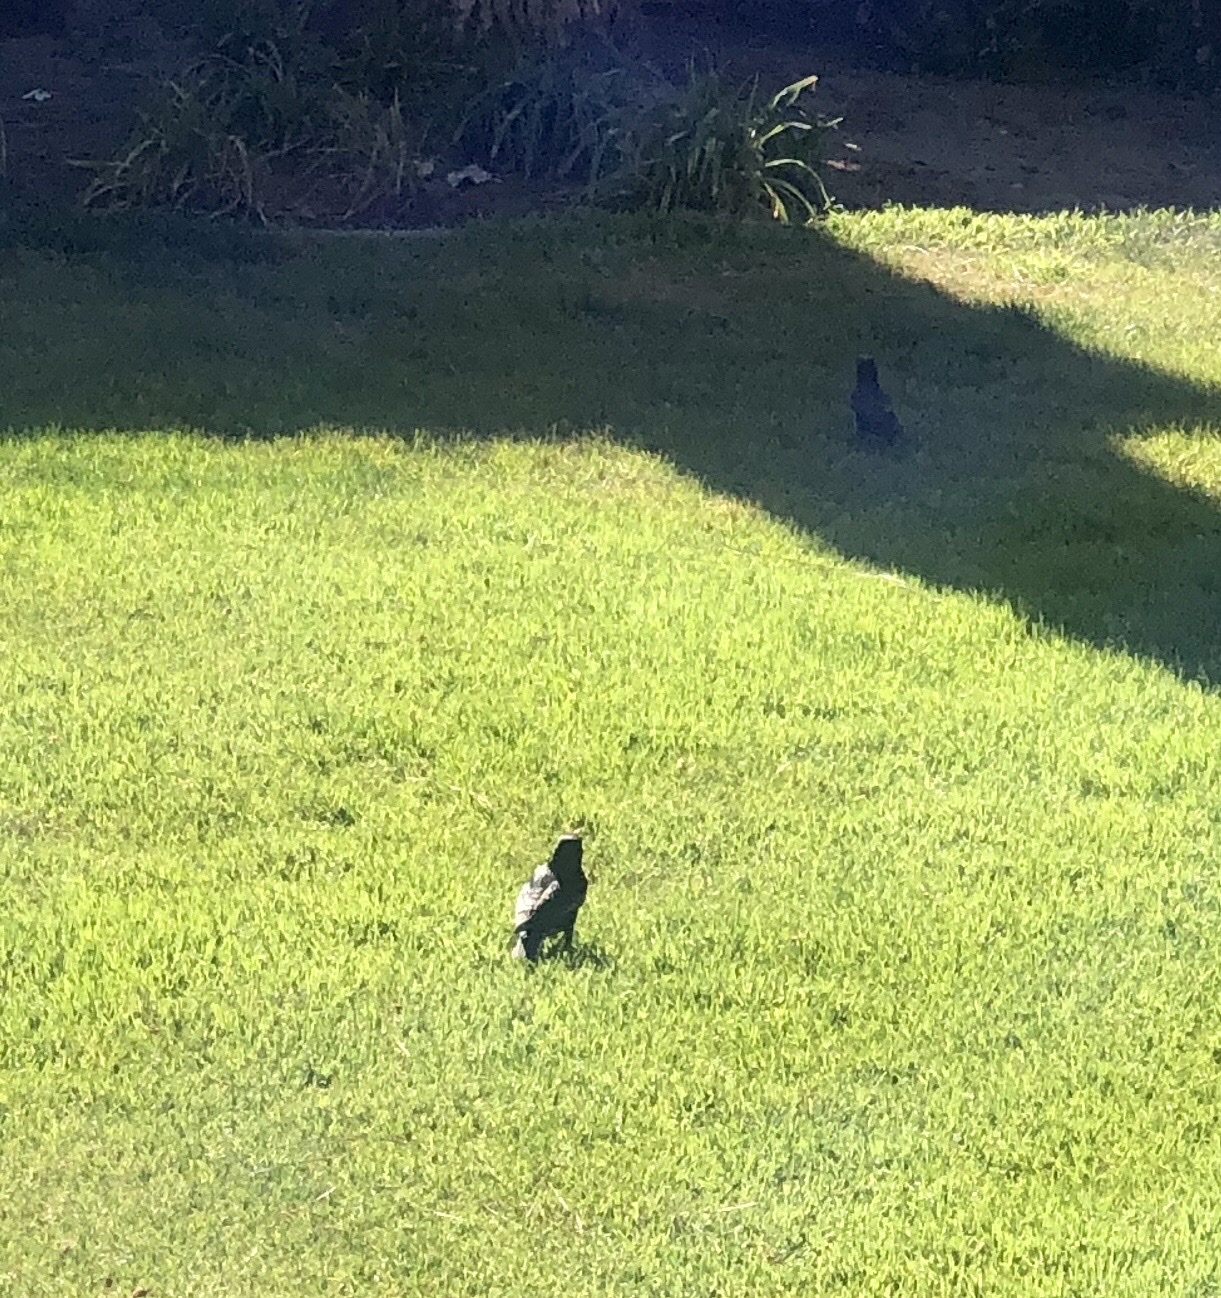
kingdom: Animalia
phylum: Chordata
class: Aves
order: Passeriformes
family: Sturnidae
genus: Sturnus
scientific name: Sturnus vulgaris
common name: Common starling
